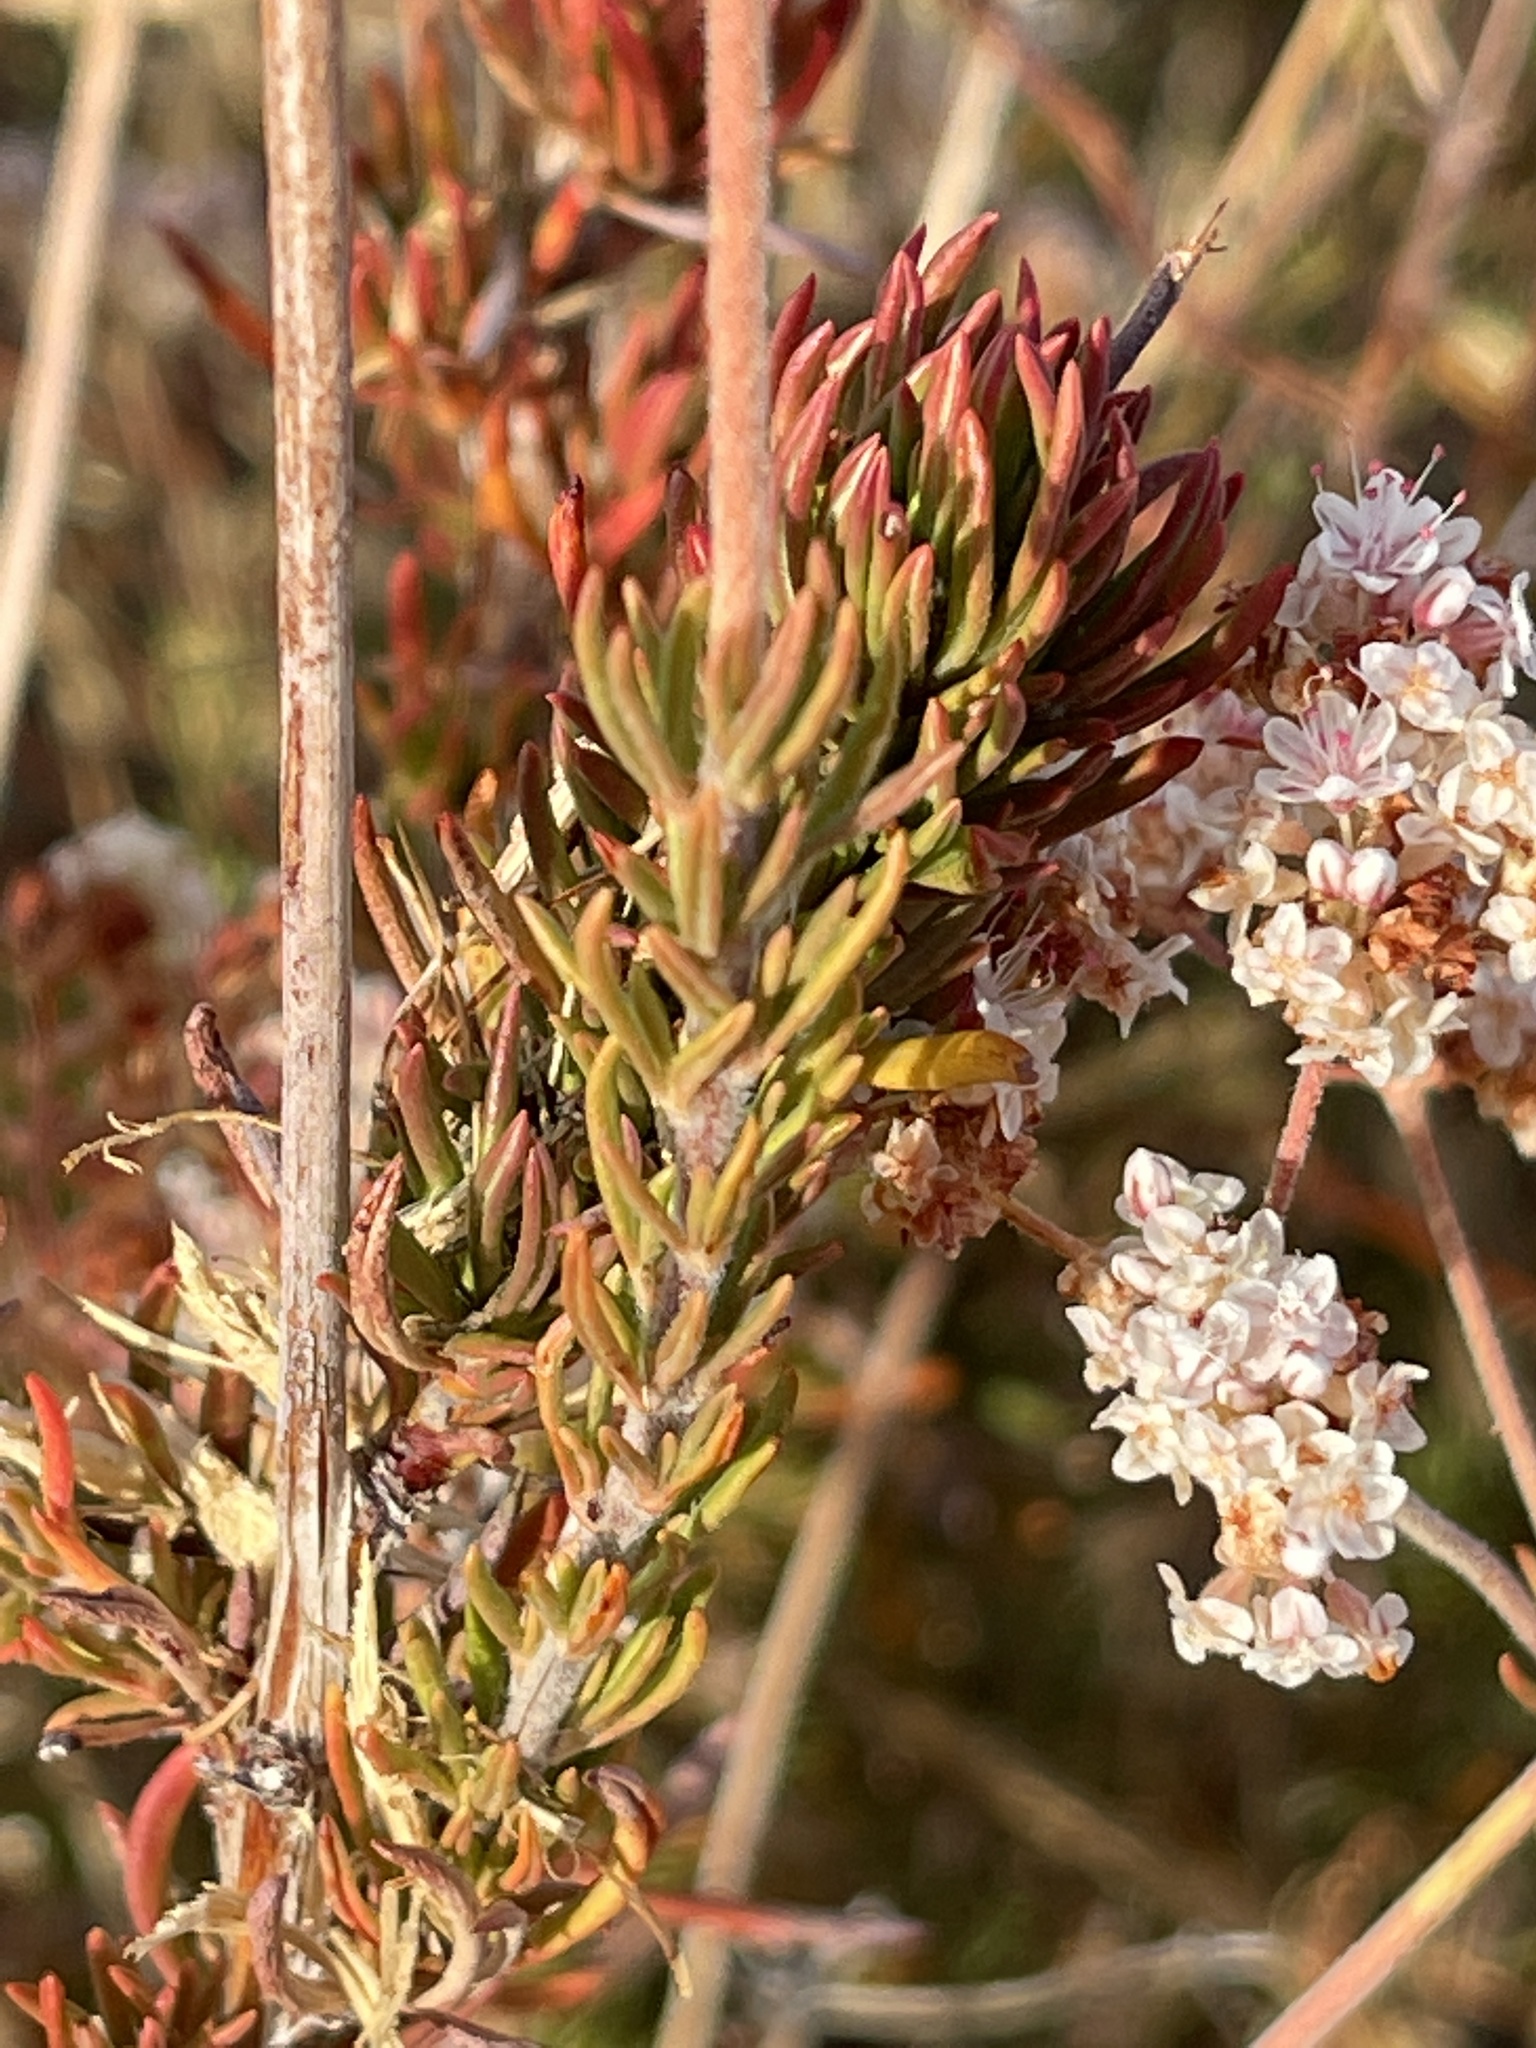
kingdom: Plantae
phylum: Tracheophyta
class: Magnoliopsida
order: Caryophyllales
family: Polygonaceae
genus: Eriogonum
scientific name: Eriogonum fasciculatum
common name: California wild buckwheat
